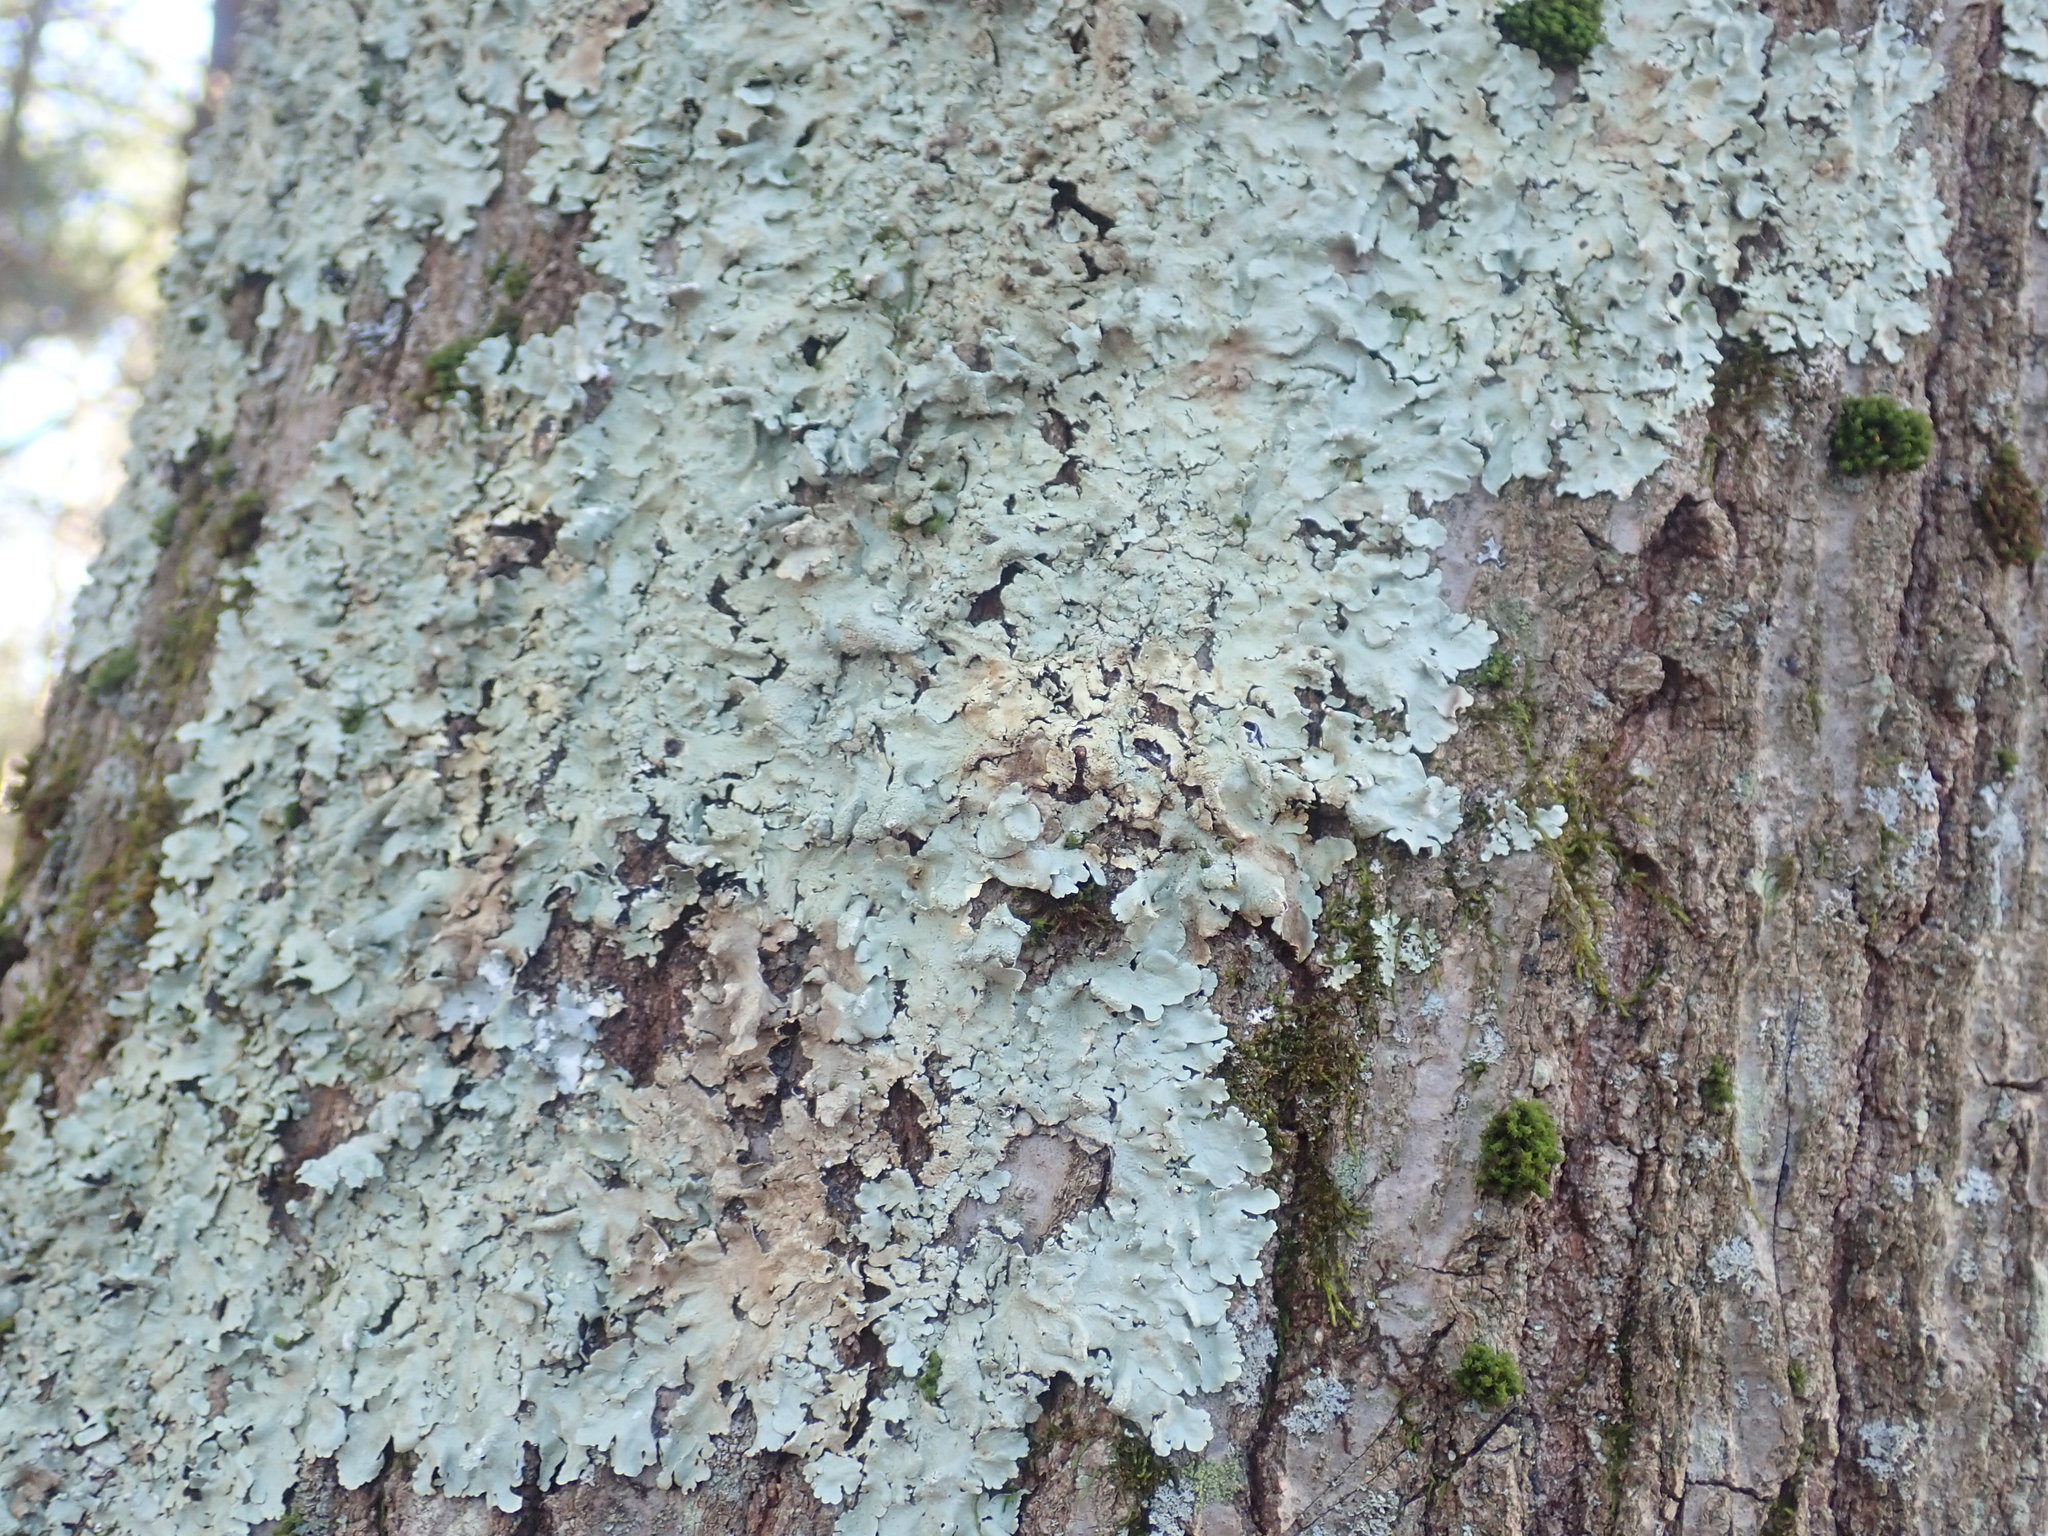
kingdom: Fungi
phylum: Ascomycota
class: Lecanoromycetes
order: Lecanorales
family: Parmeliaceae
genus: Flavoparmelia
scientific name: Flavoparmelia caperata
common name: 40-mile per hour lichen
